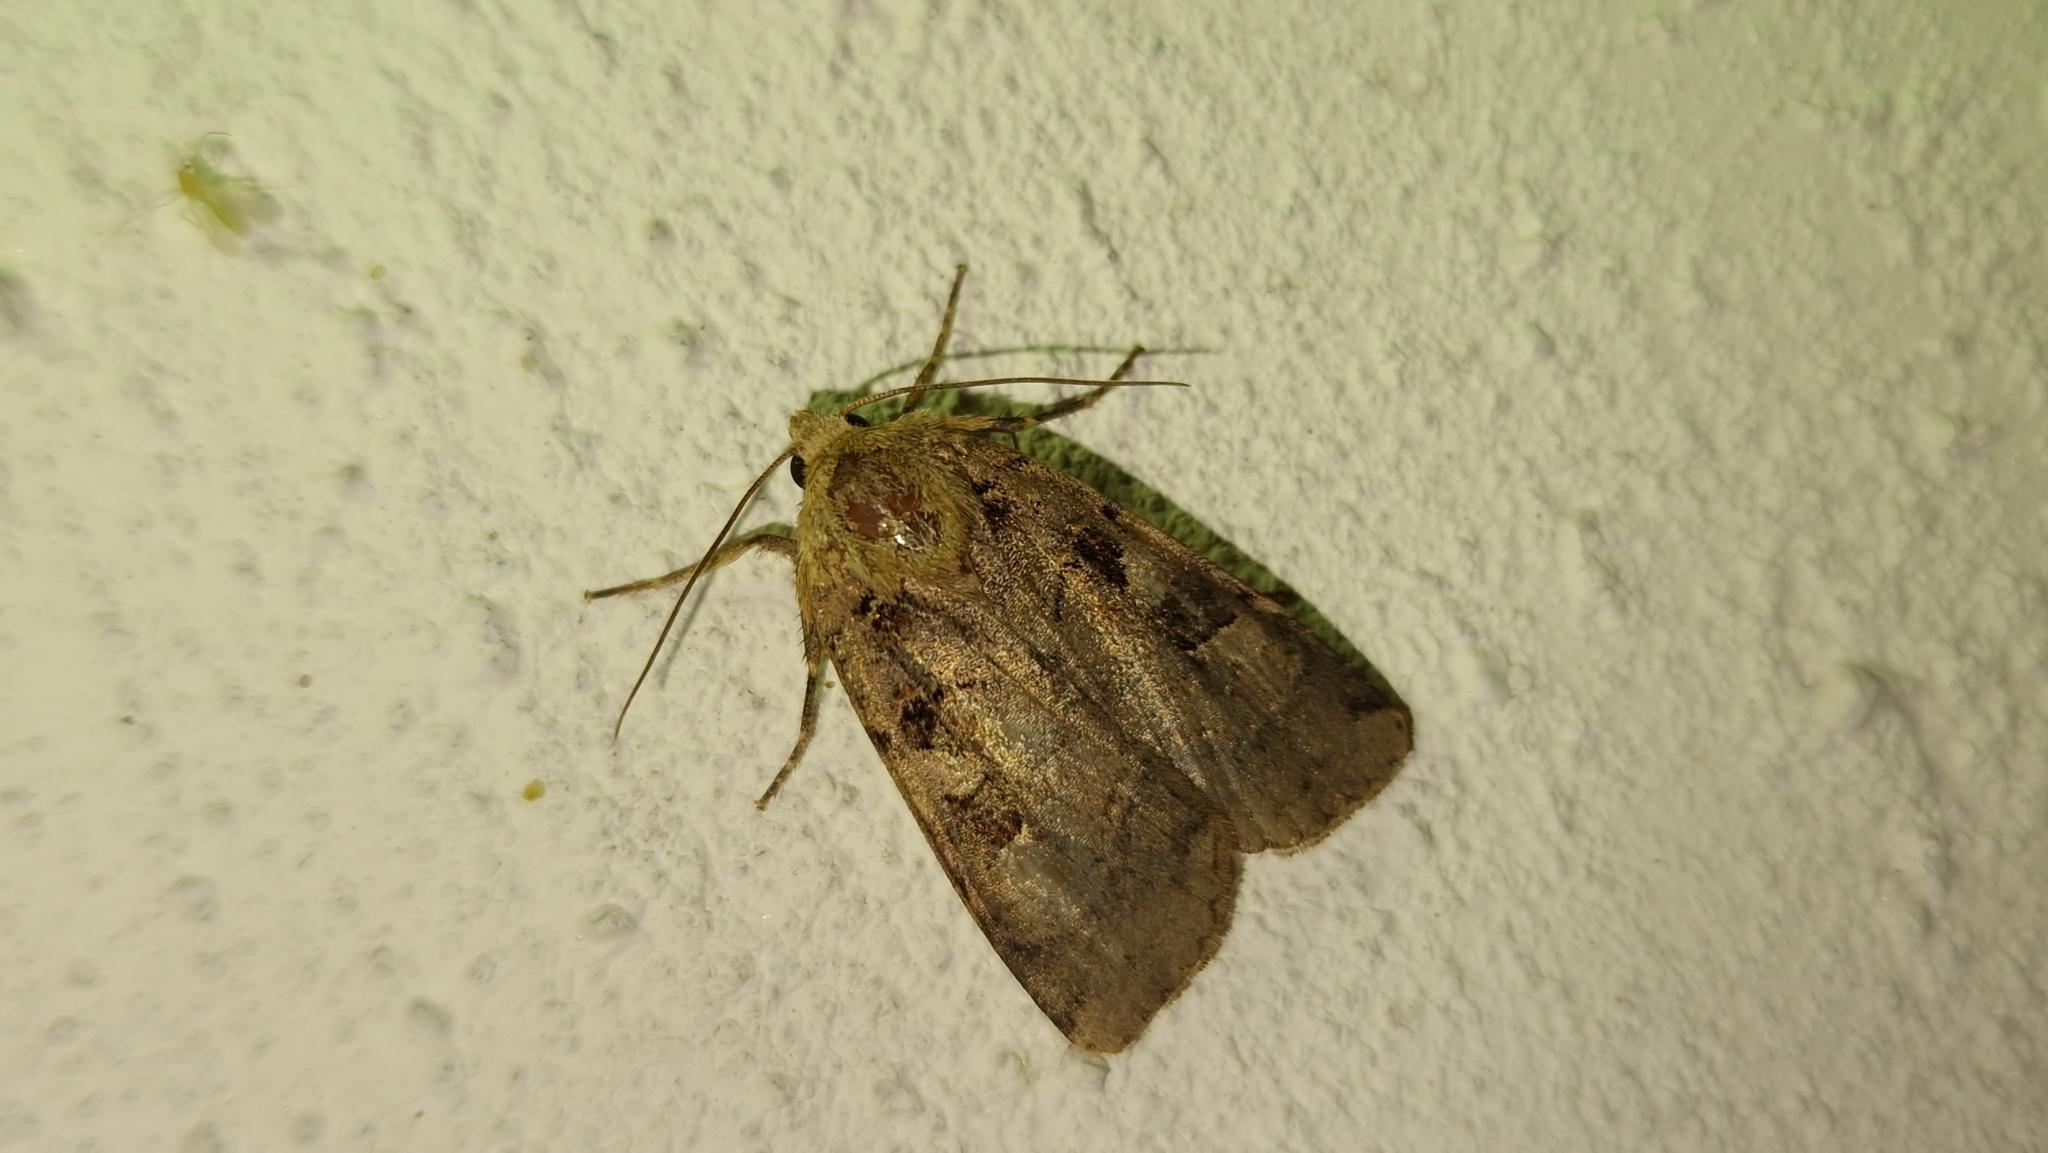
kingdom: Animalia
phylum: Arthropoda
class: Insecta
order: Lepidoptera
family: Noctuidae
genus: Xestia
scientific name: Xestia triangulum
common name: Double square-spot
